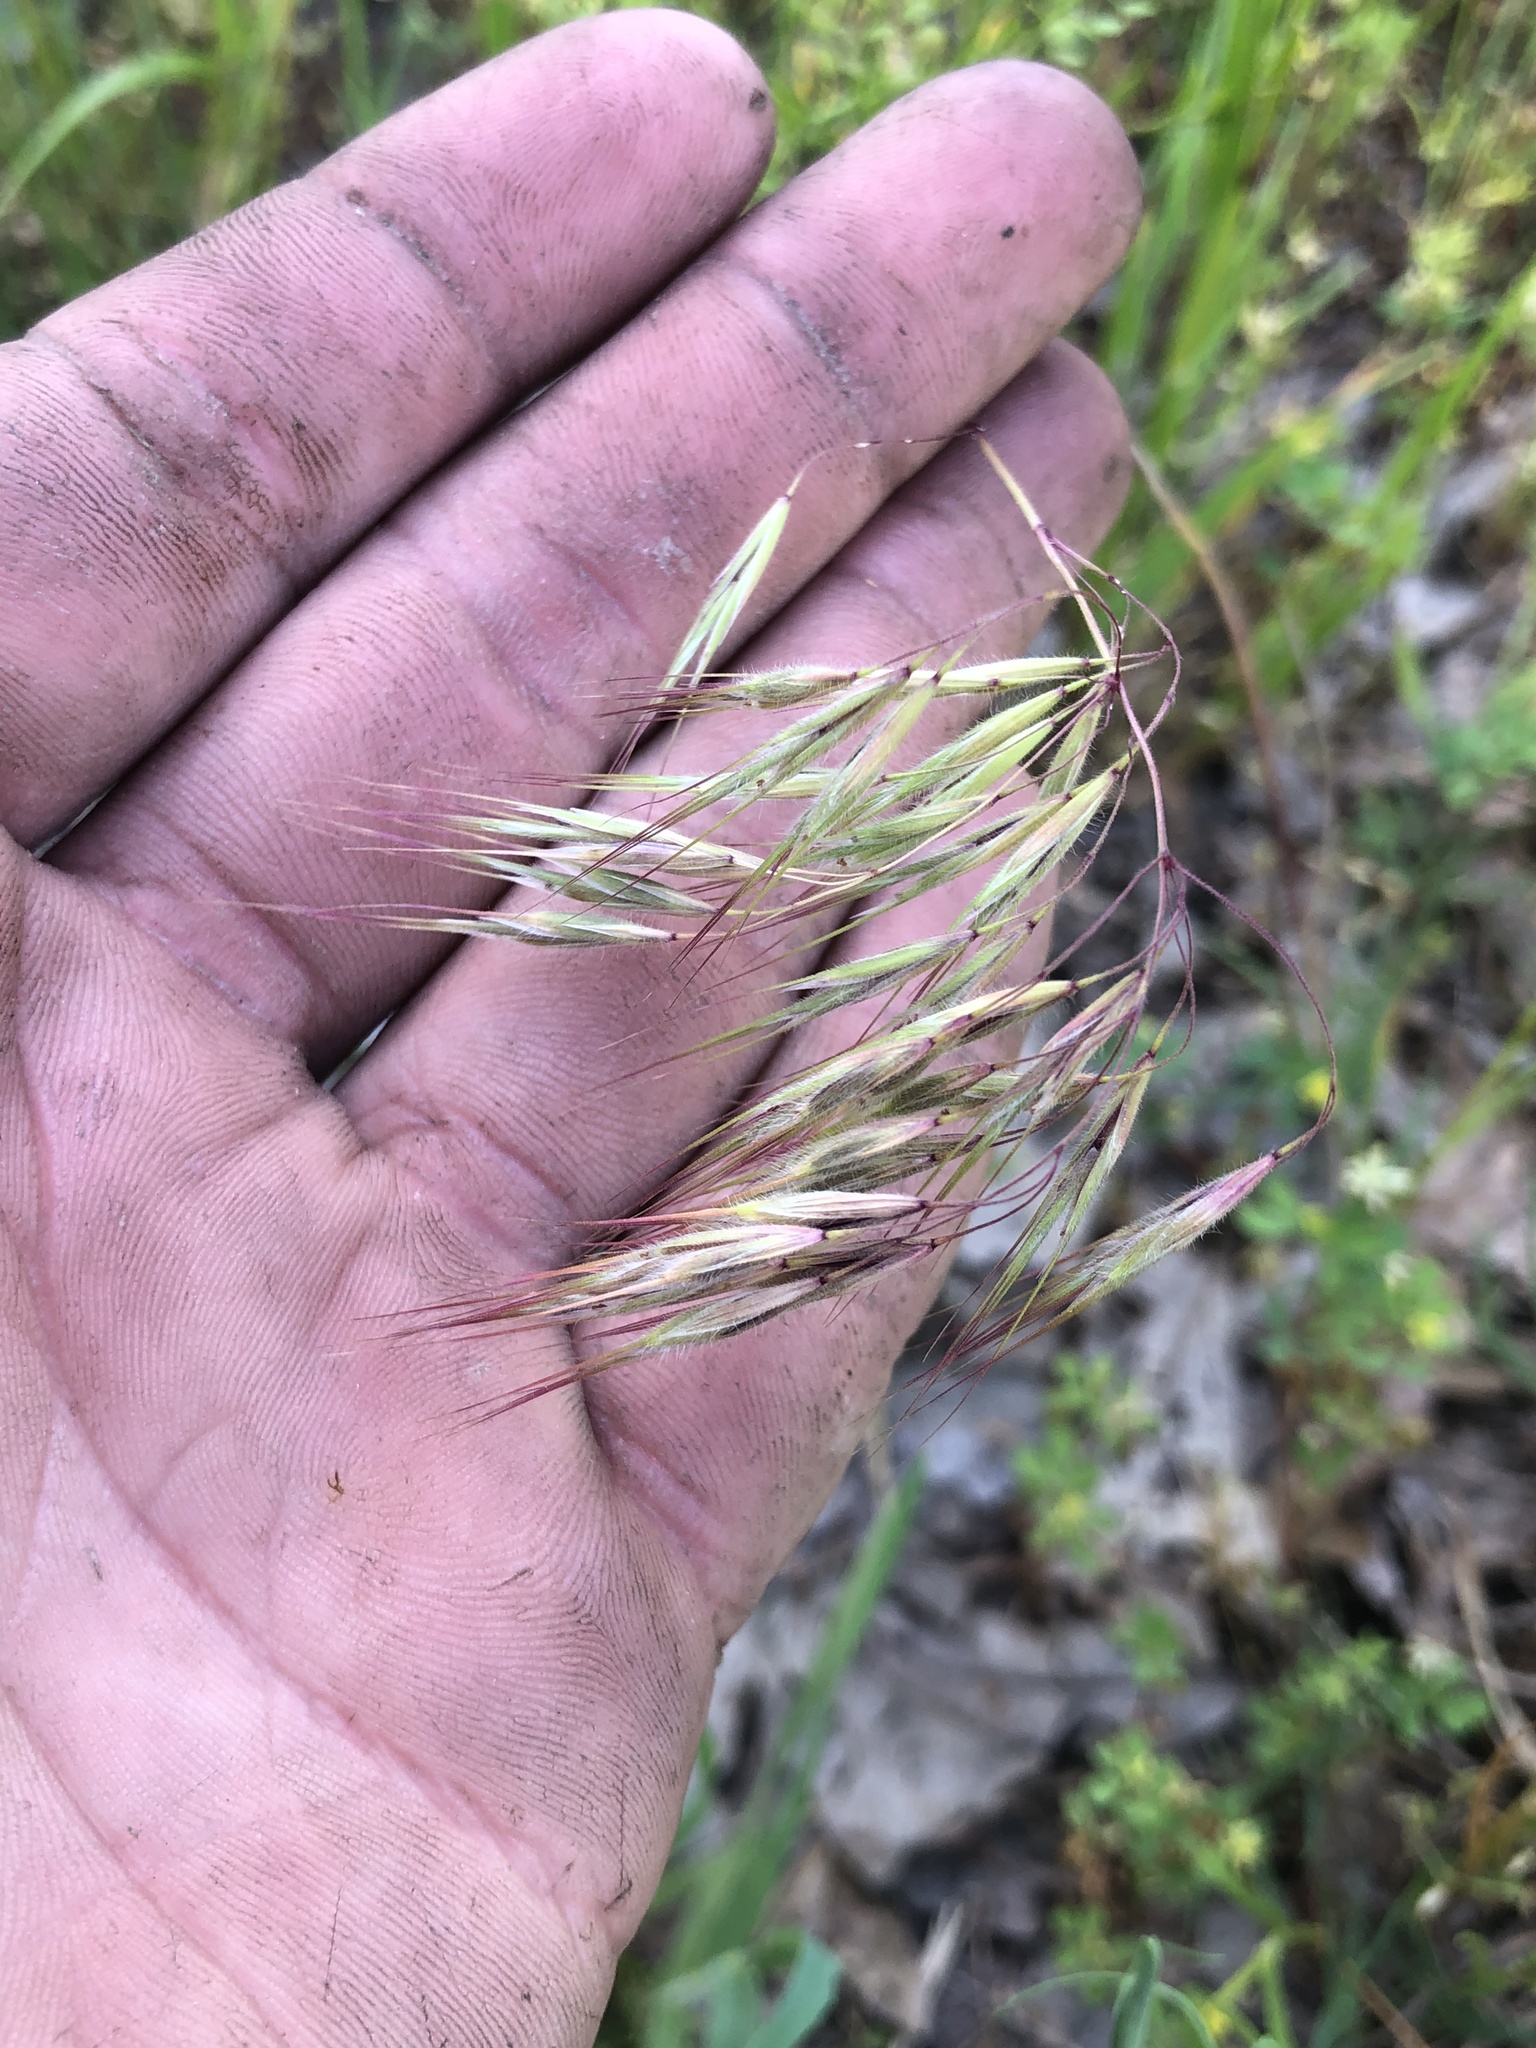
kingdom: Plantae
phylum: Tracheophyta
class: Liliopsida
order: Poales
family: Poaceae
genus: Bromus
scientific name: Bromus tectorum
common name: Cheatgrass
